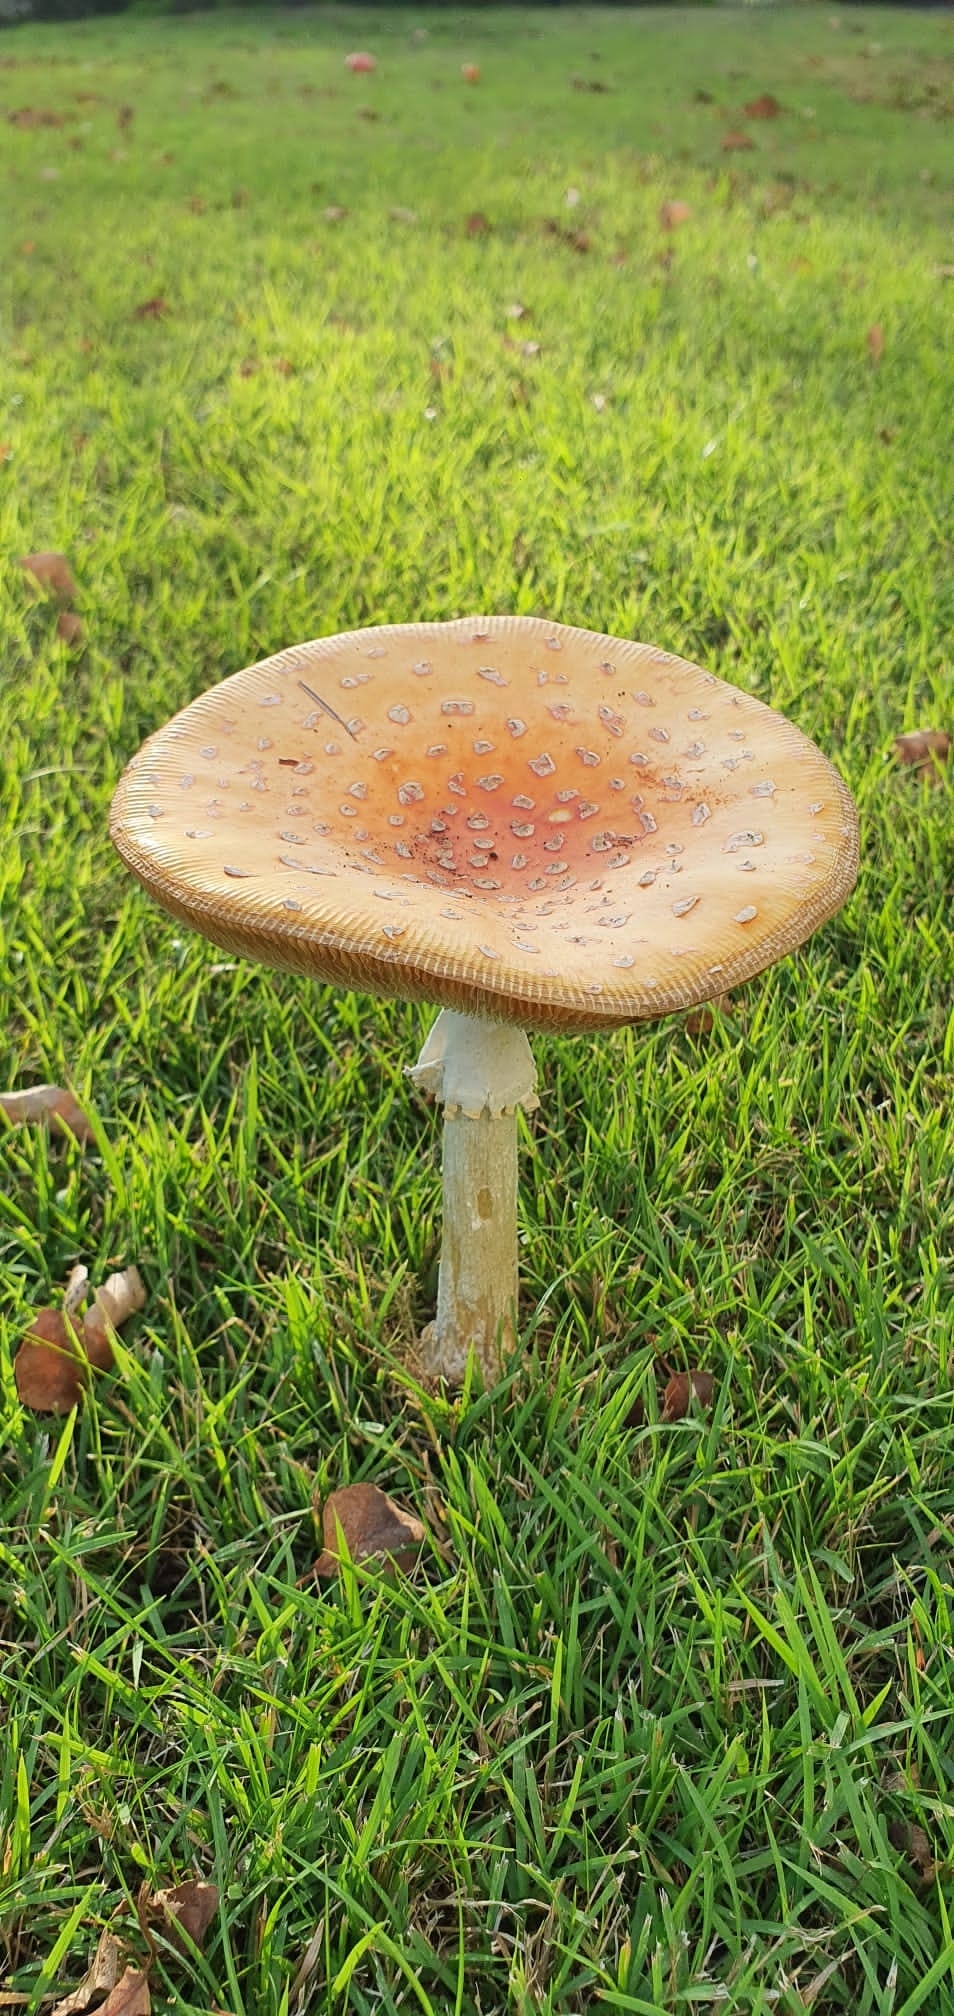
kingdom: Fungi
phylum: Basidiomycota
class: Agaricomycetes
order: Agaricales
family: Amanitaceae
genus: Amanita
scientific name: Amanita muscaria
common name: Fly agaric
